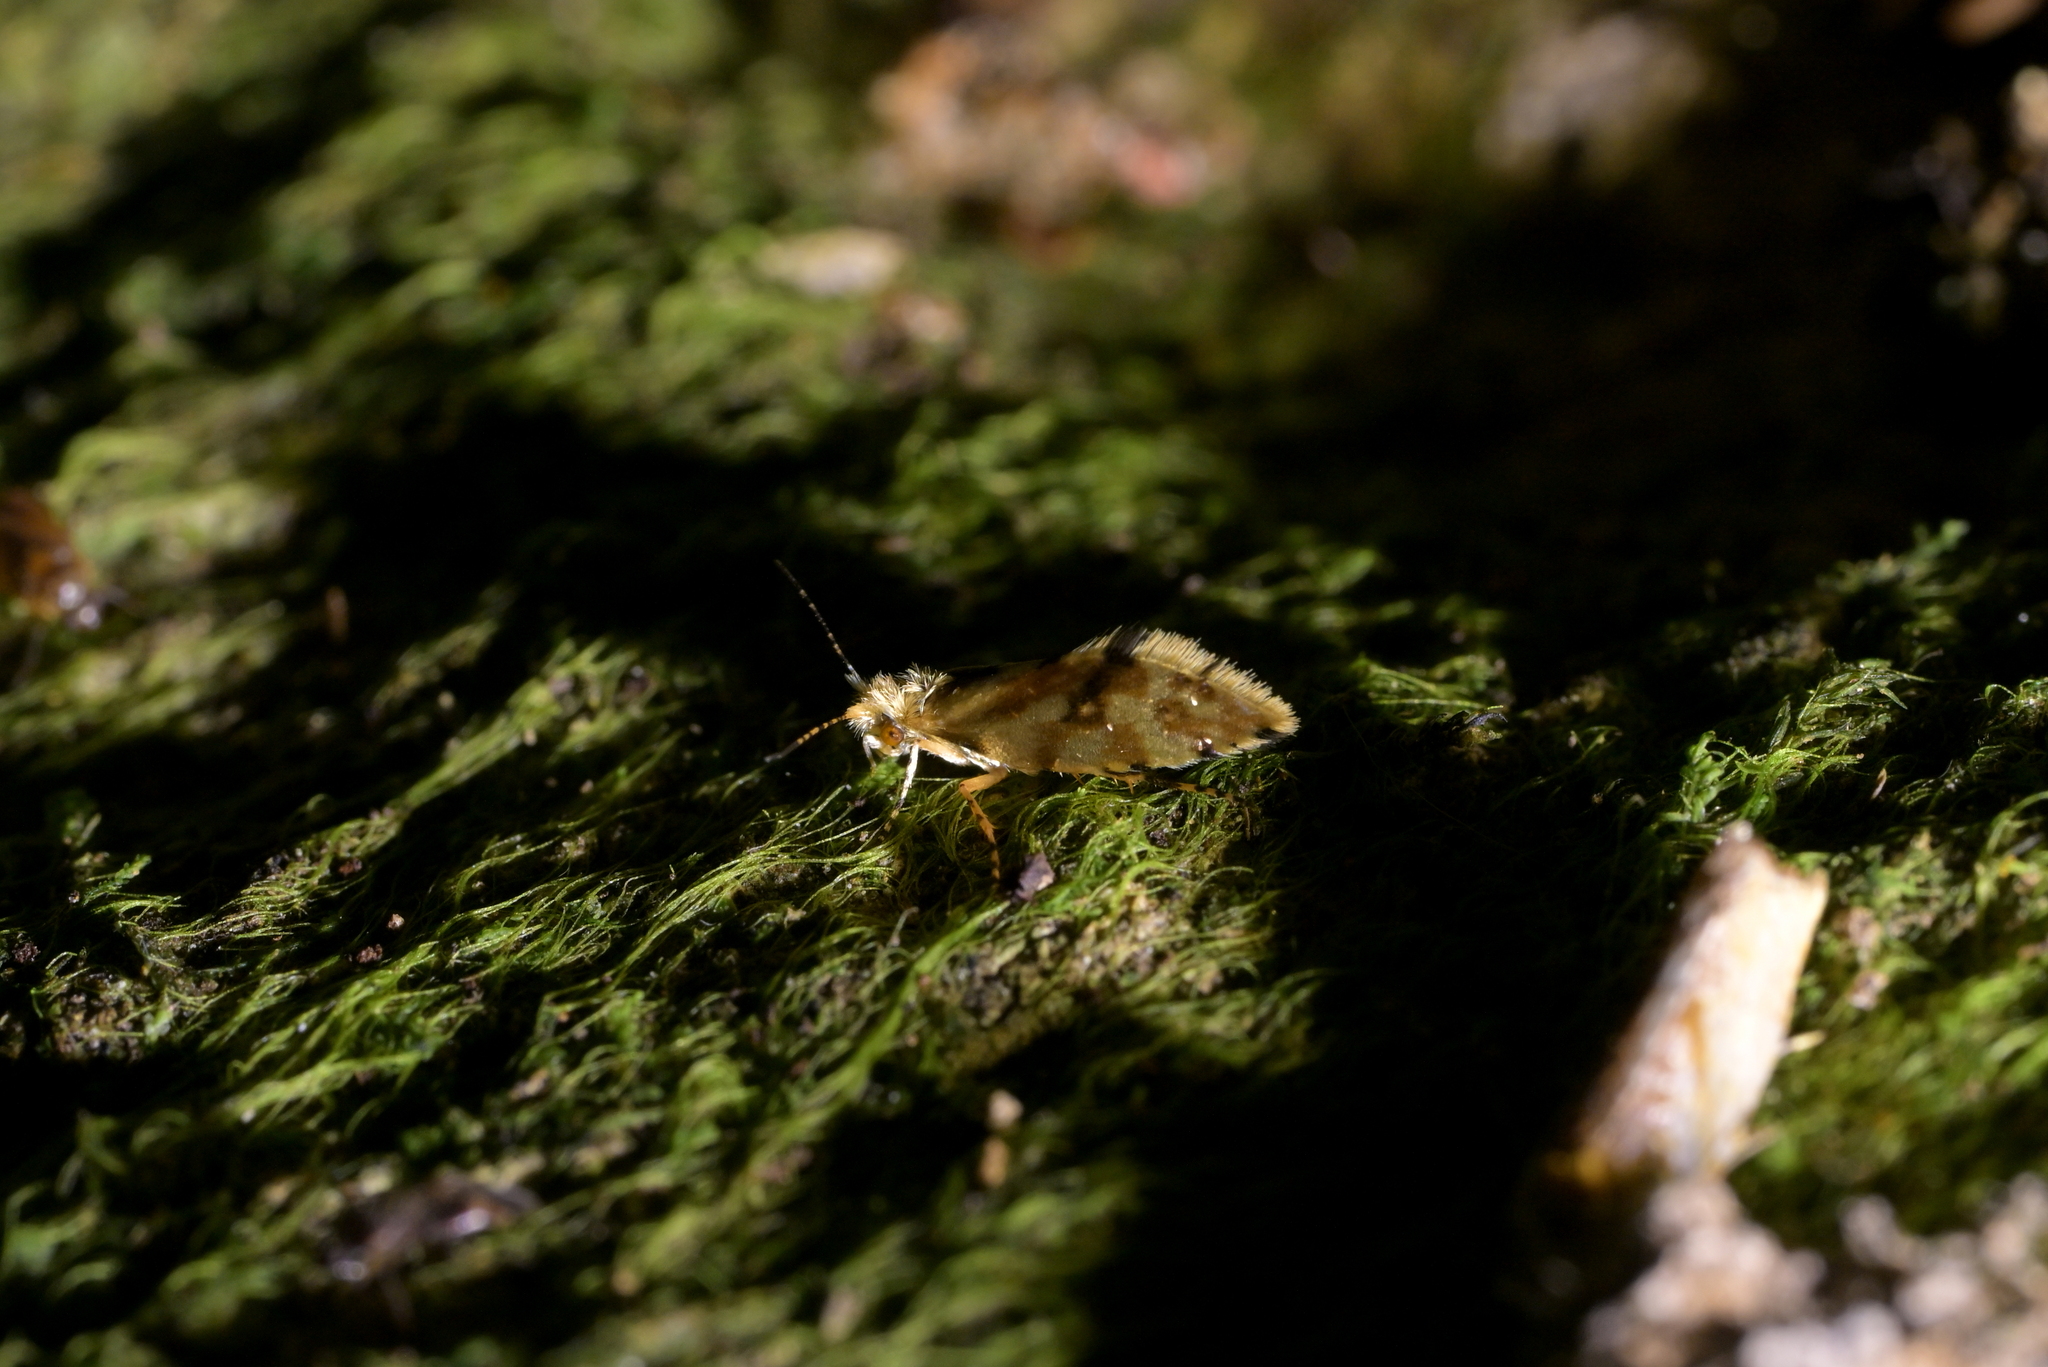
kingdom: Animalia
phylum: Arthropoda
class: Insecta
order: Lepidoptera
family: Micropterigidae
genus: Sabatinca
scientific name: Sabatinca chalcophanes
